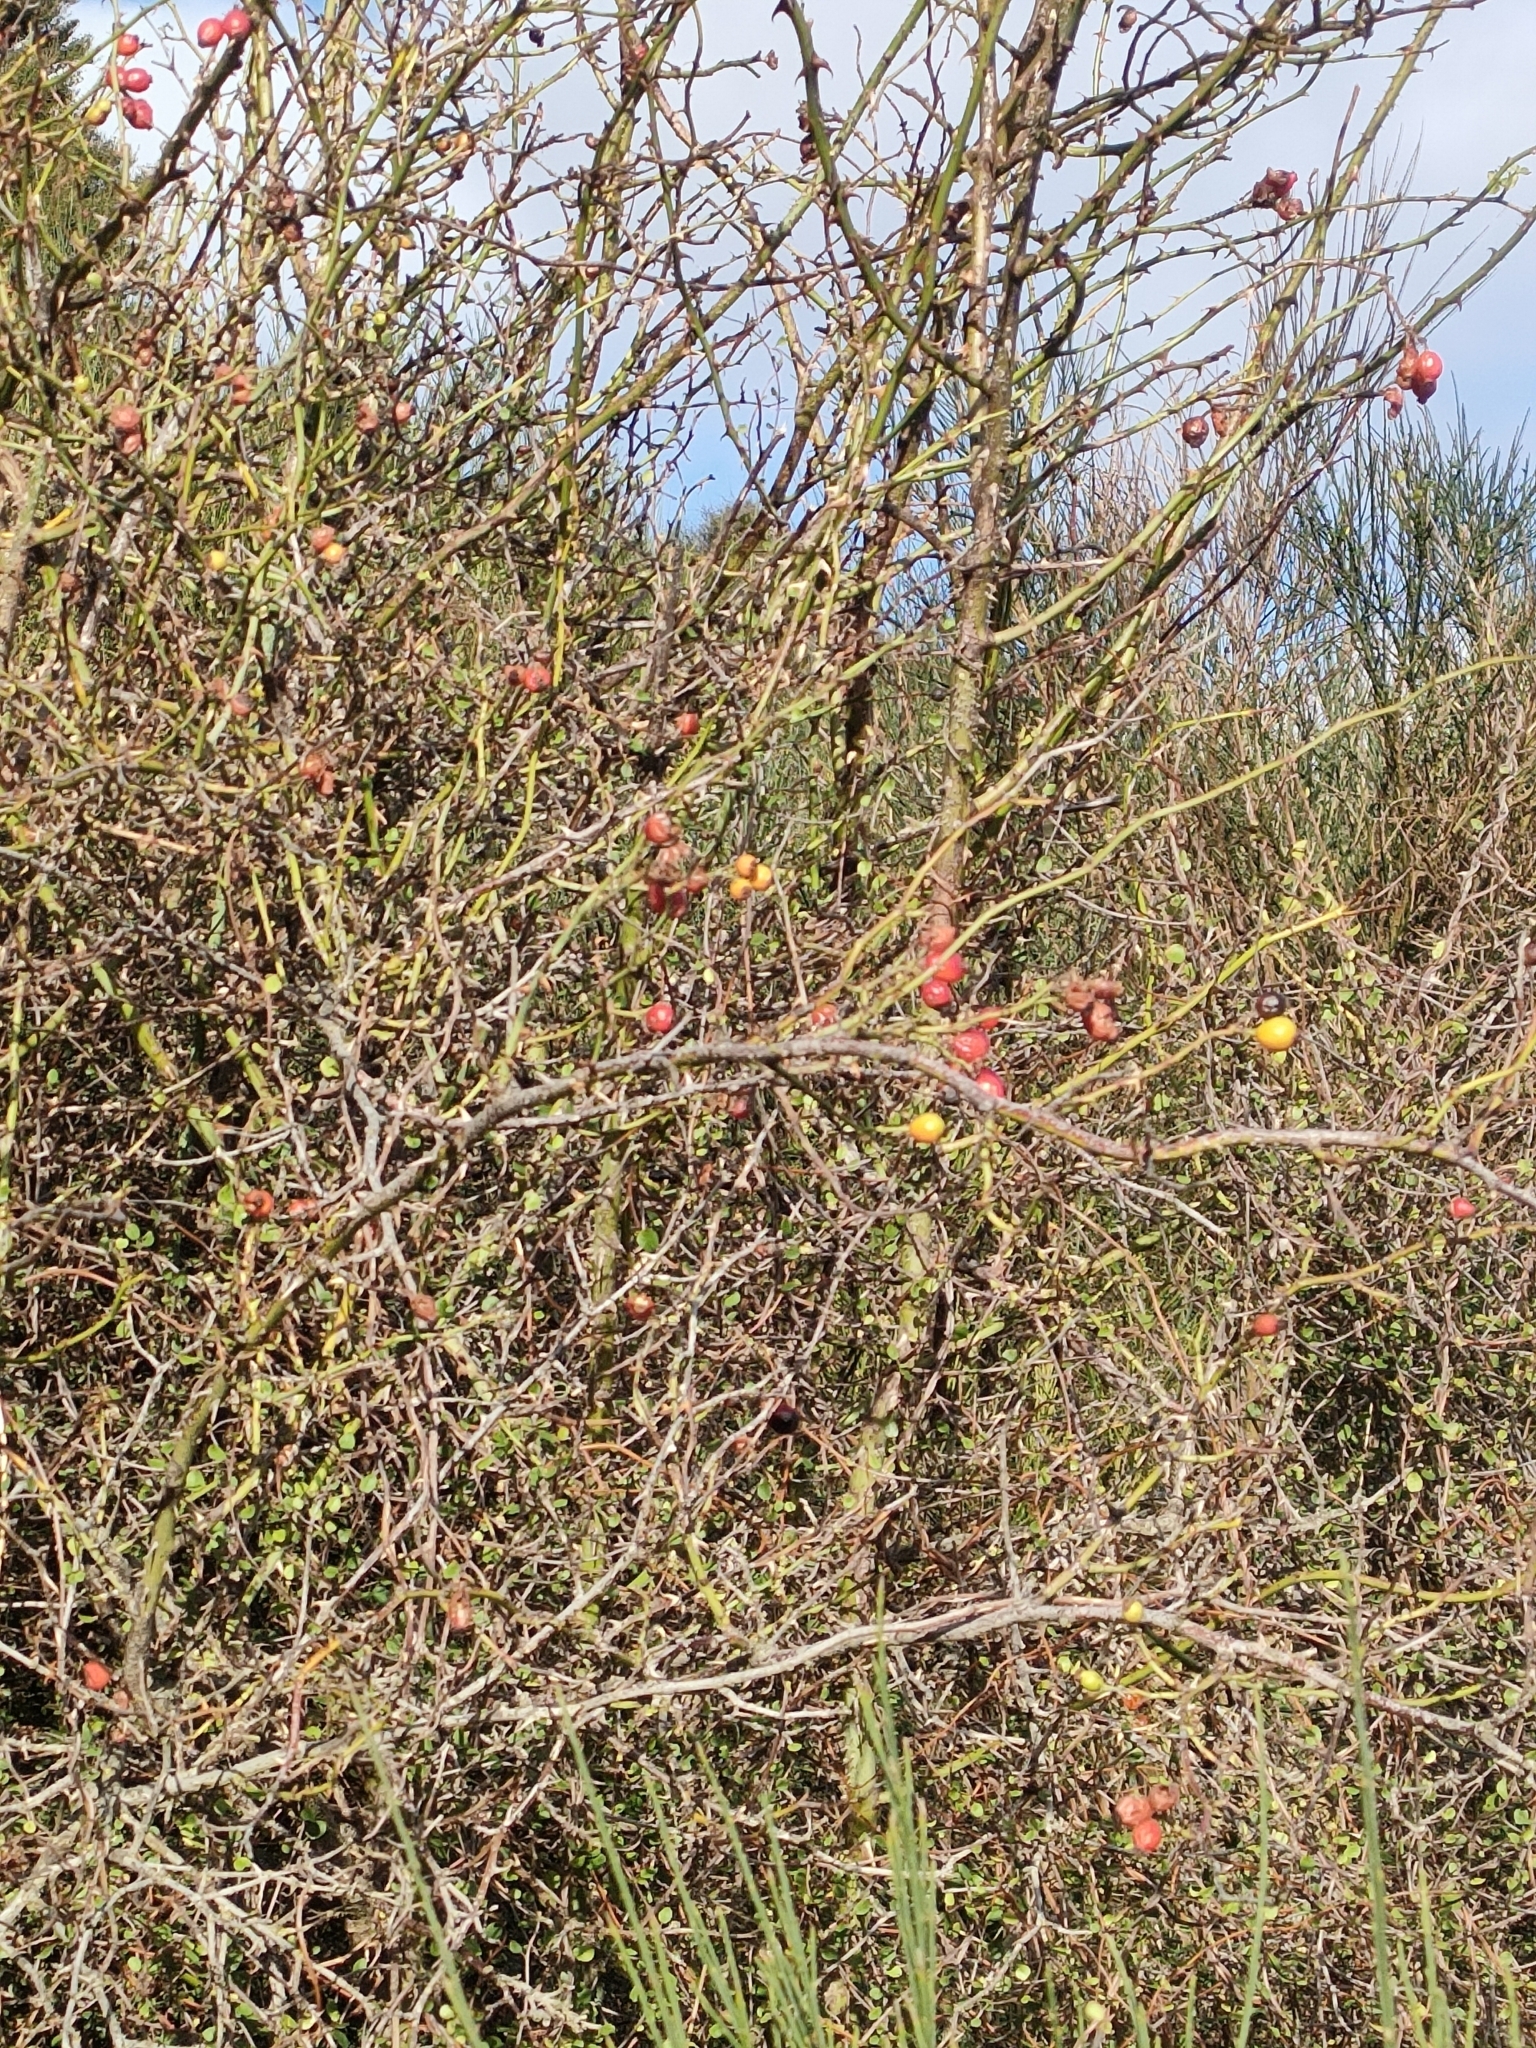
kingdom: Plantae
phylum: Tracheophyta
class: Magnoliopsida
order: Rosales
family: Rosaceae
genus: Rosa
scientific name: Rosa rubiginosa
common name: Sweet-briar
